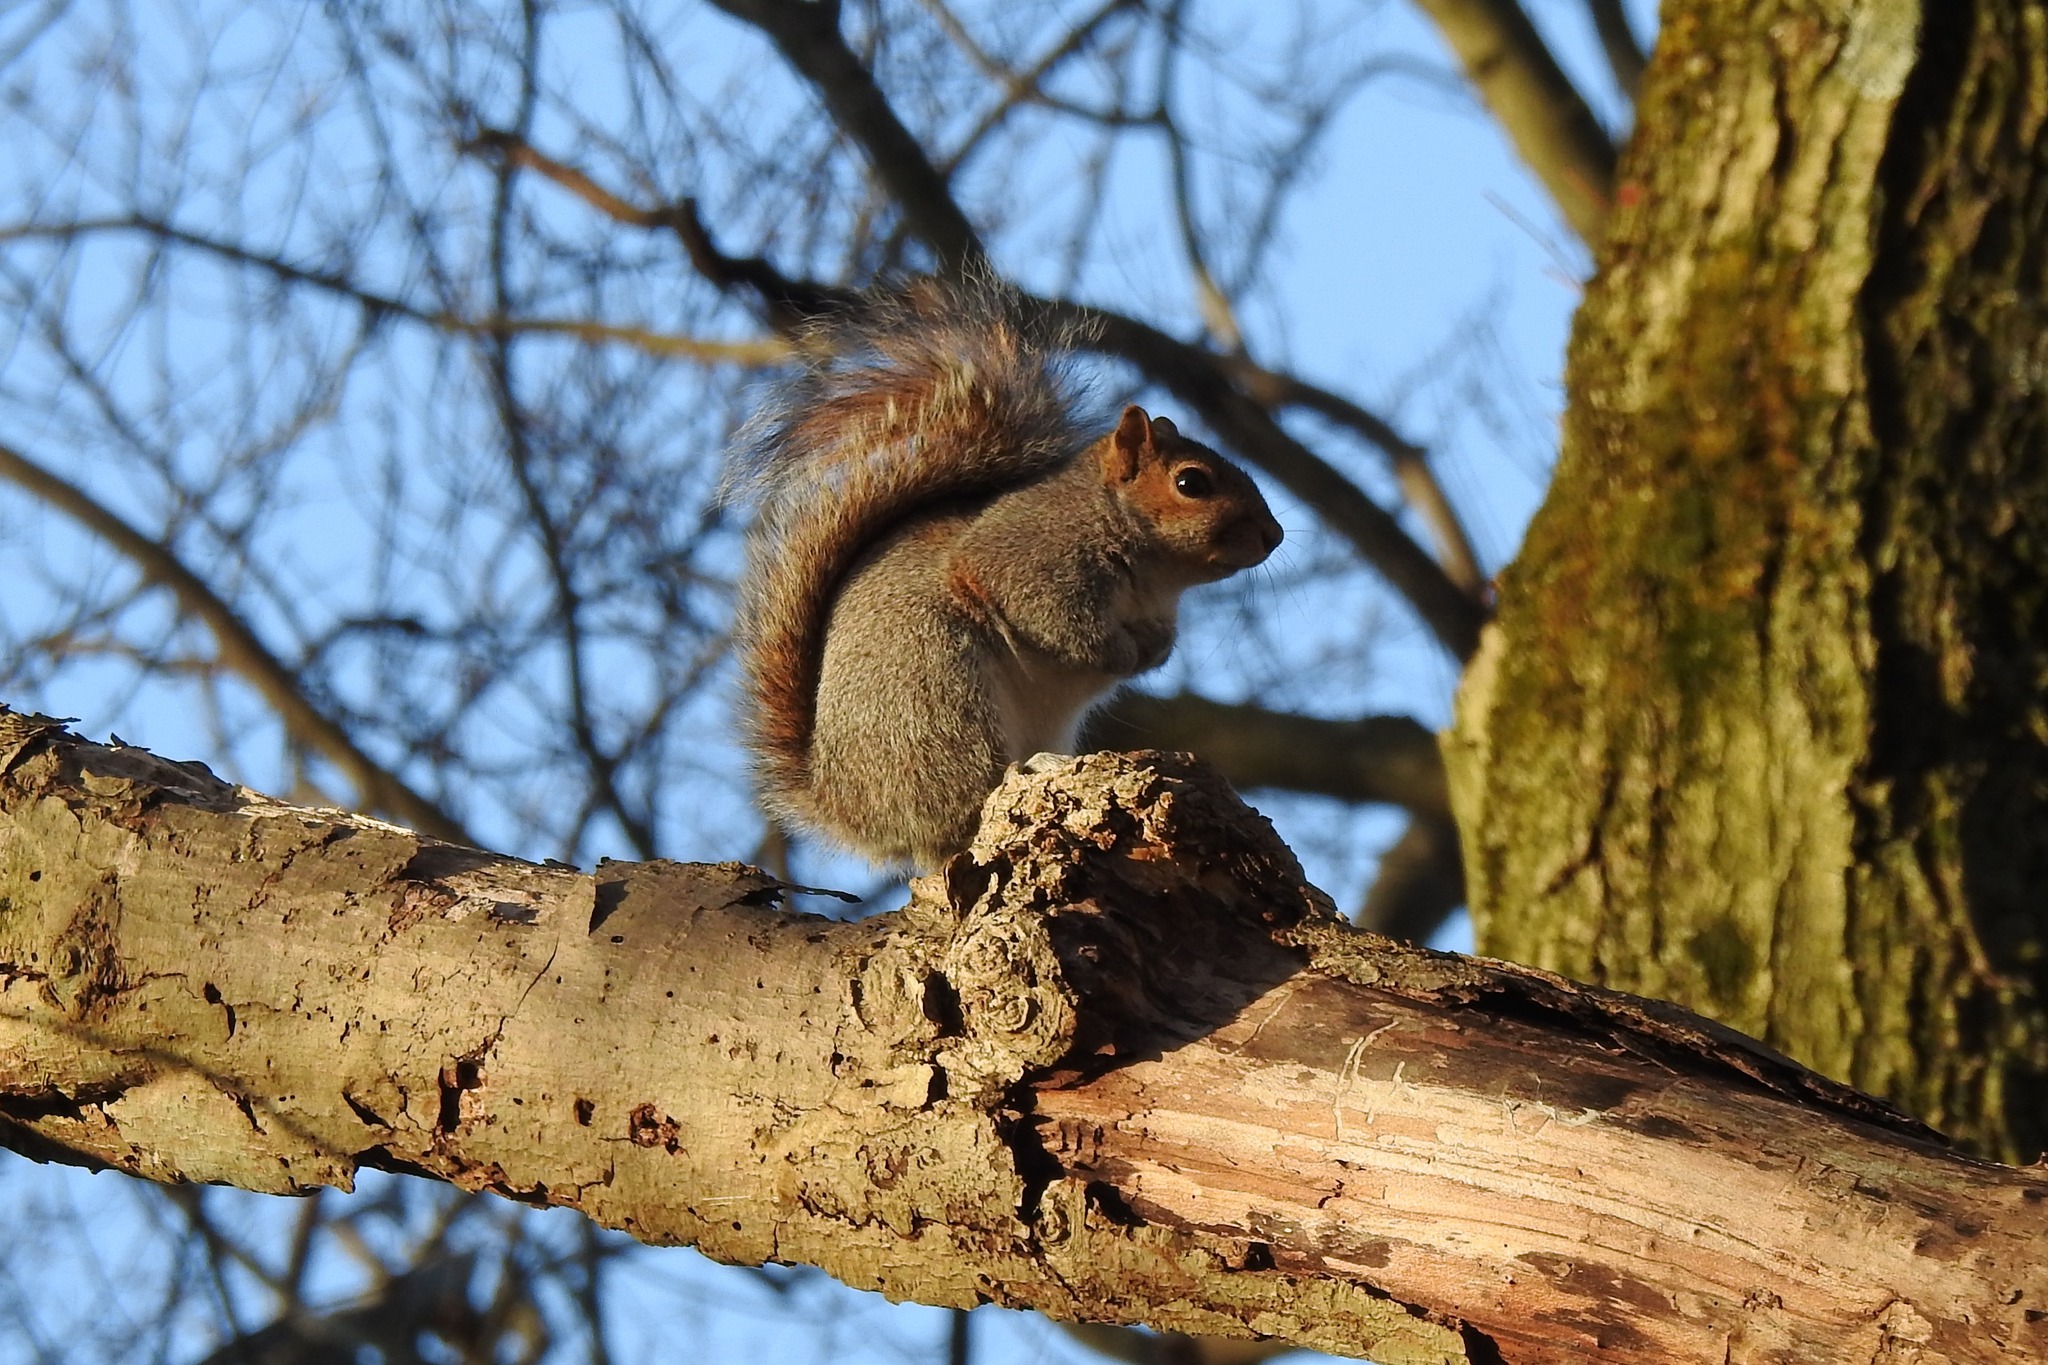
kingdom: Animalia
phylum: Chordata
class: Mammalia
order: Rodentia
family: Sciuridae
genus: Sciurus
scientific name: Sciurus carolinensis
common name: Eastern gray squirrel
